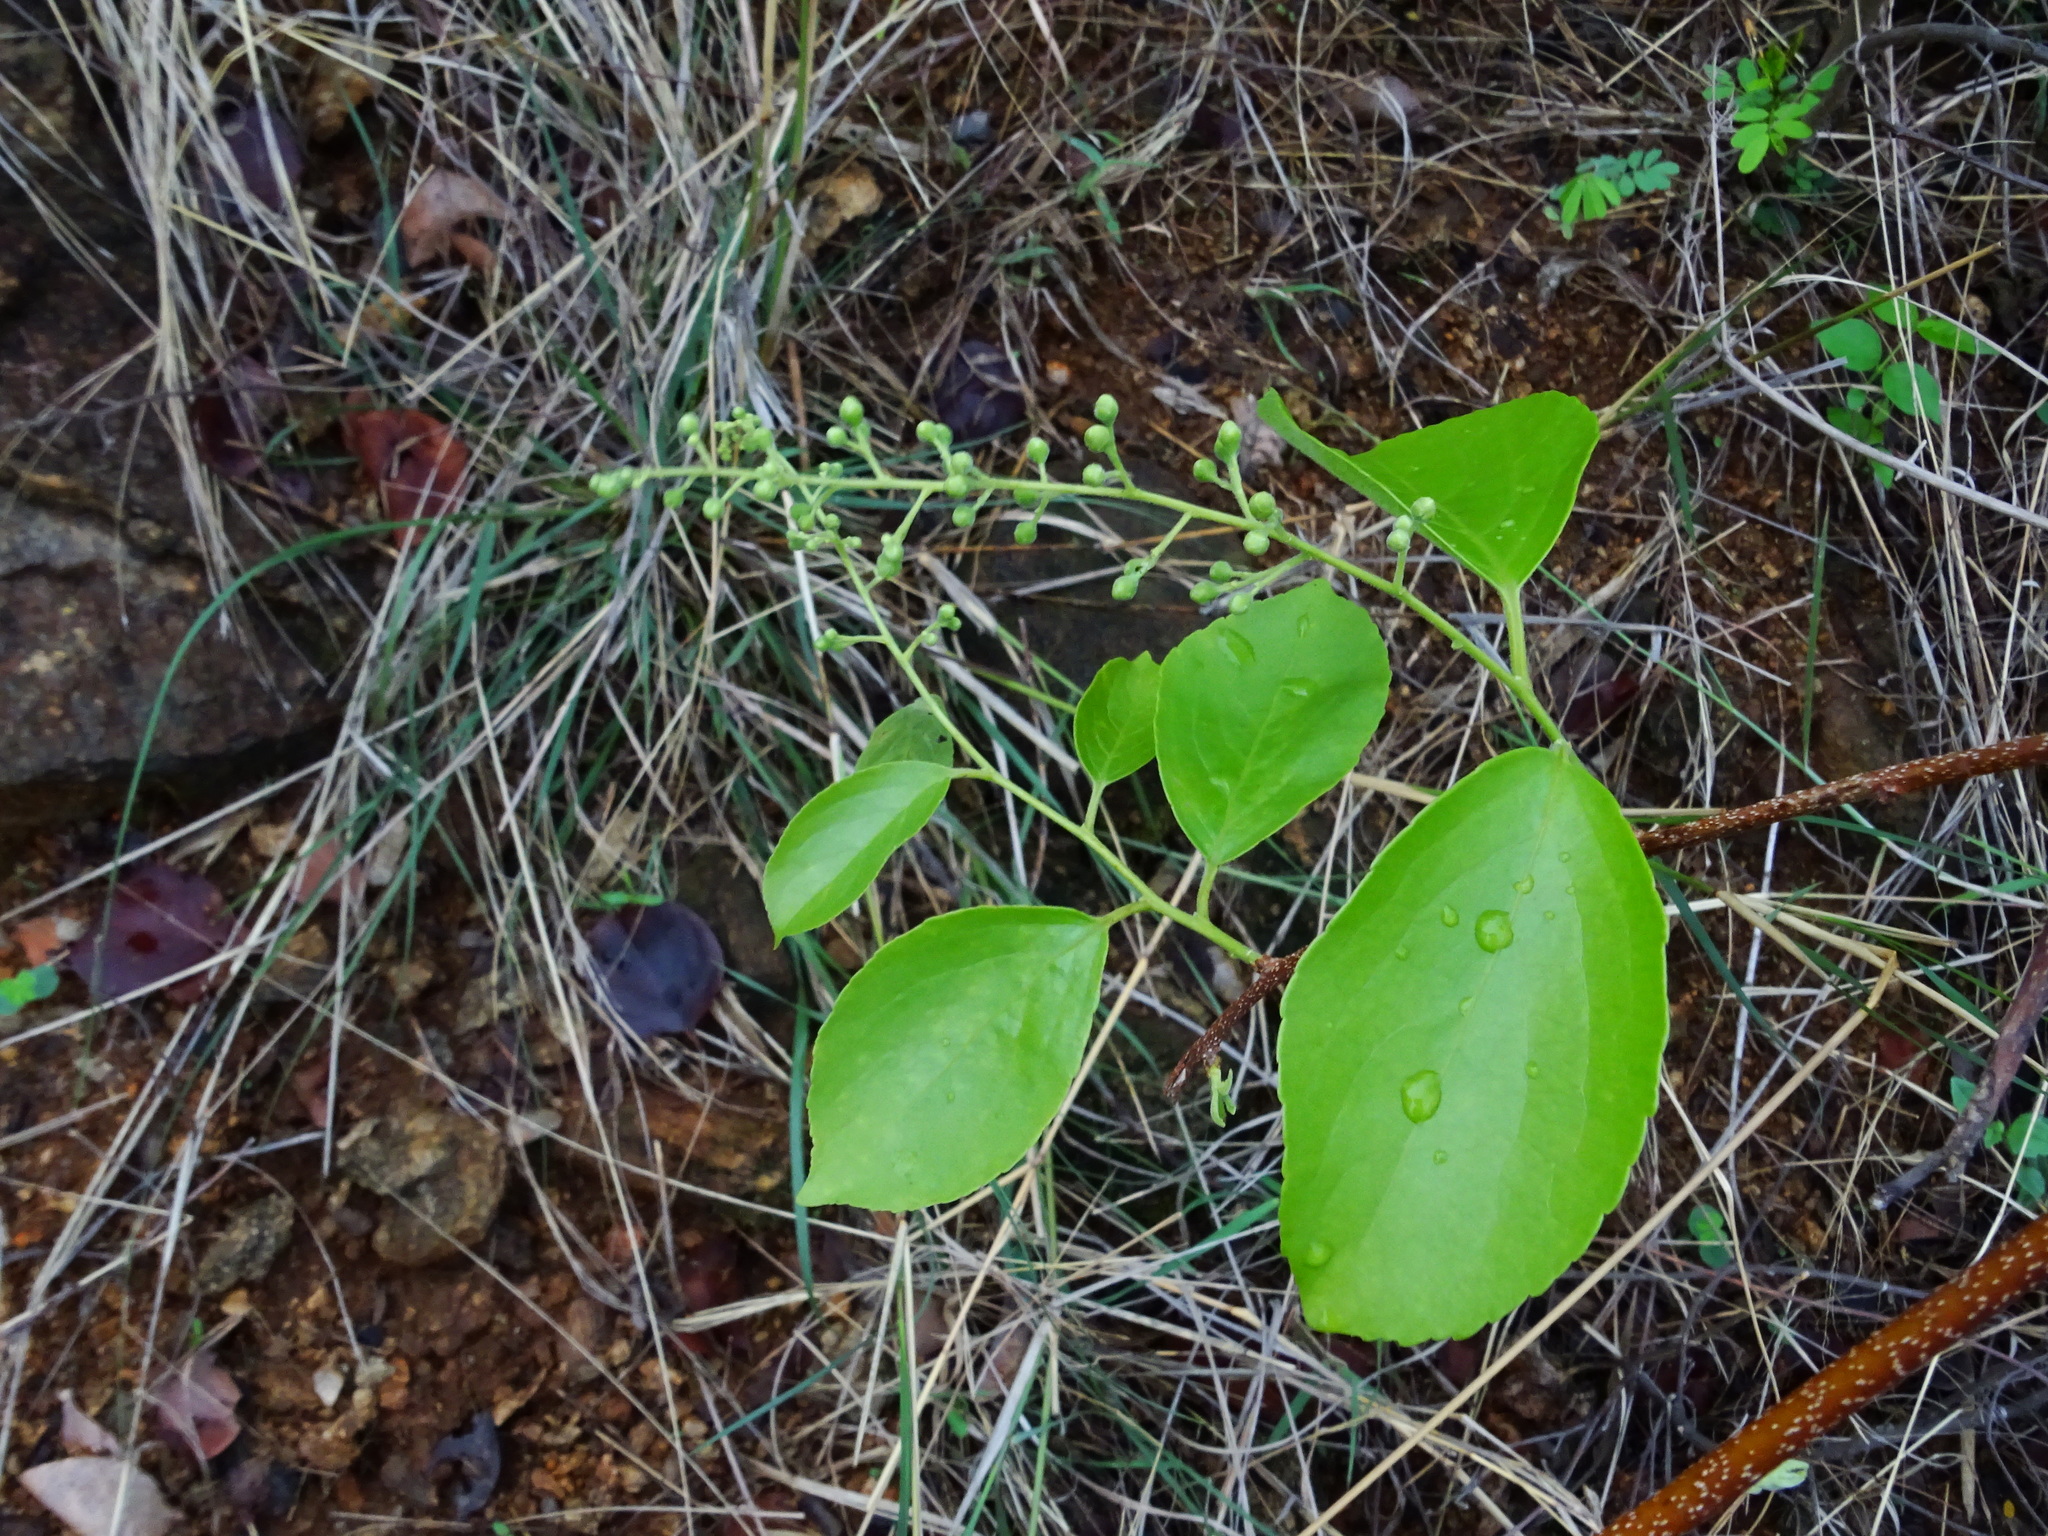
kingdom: Plantae
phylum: Tracheophyta
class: Magnoliopsida
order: Celastrales
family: Celastraceae
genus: Celastrus
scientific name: Celastrus paniculatus
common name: Oriental bittersweet; staff vine
